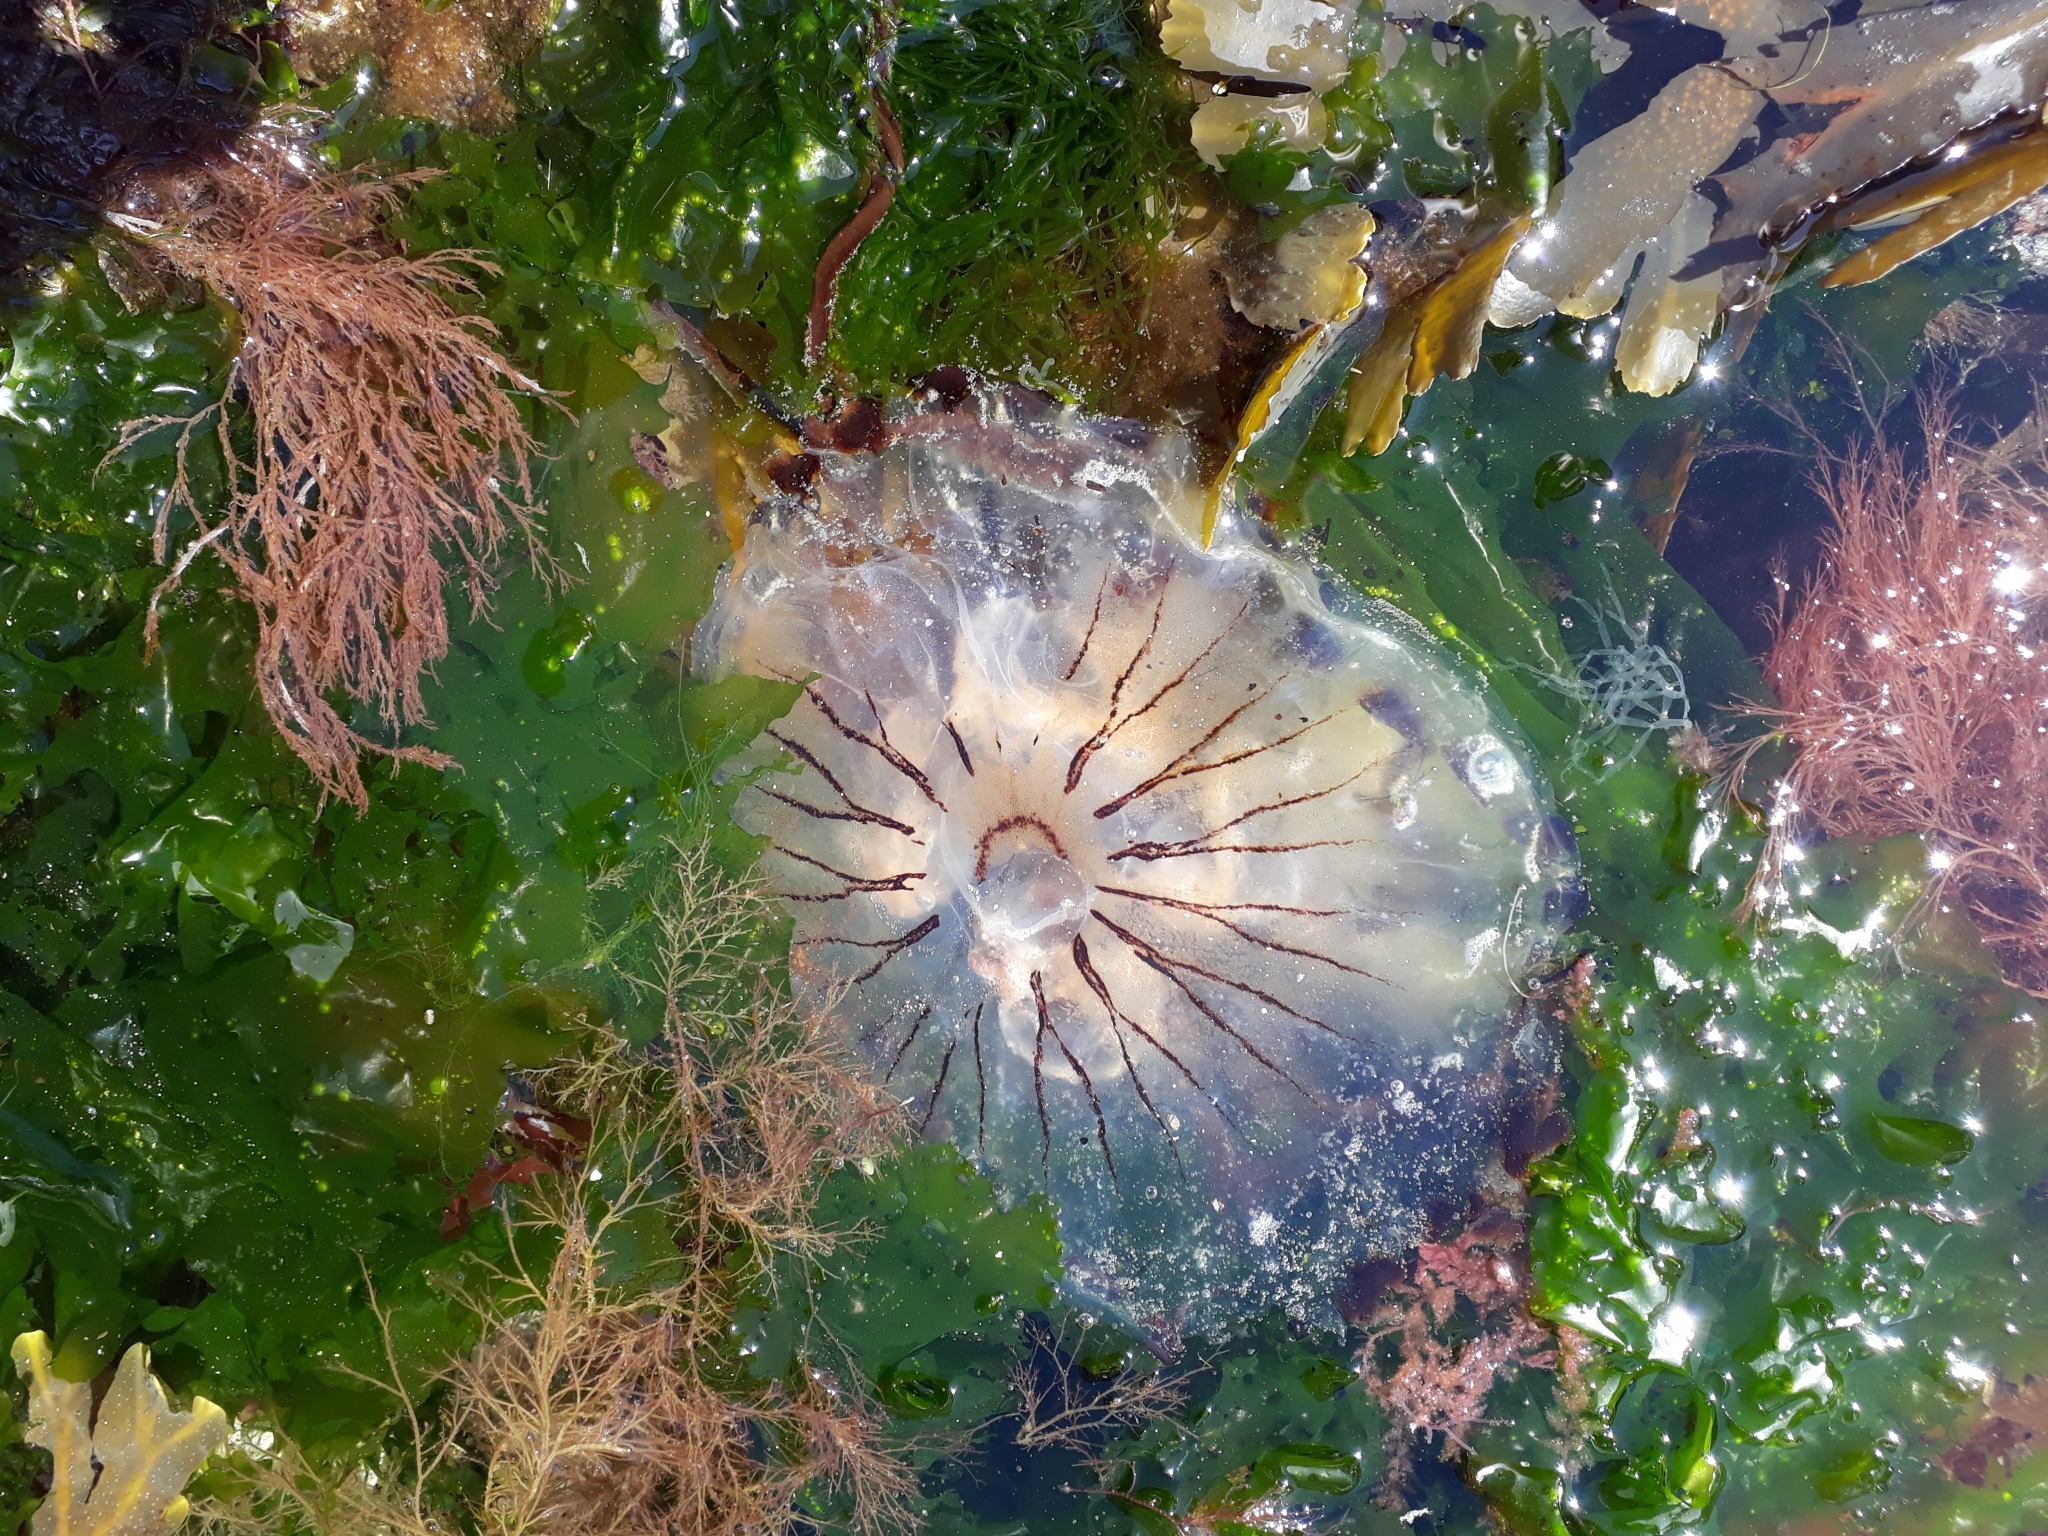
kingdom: Animalia
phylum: Cnidaria
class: Scyphozoa
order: Semaeostomeae
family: Pelagiidae
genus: Chrysaora
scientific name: Chrysaora hysoscella
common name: Compass jellyfish
